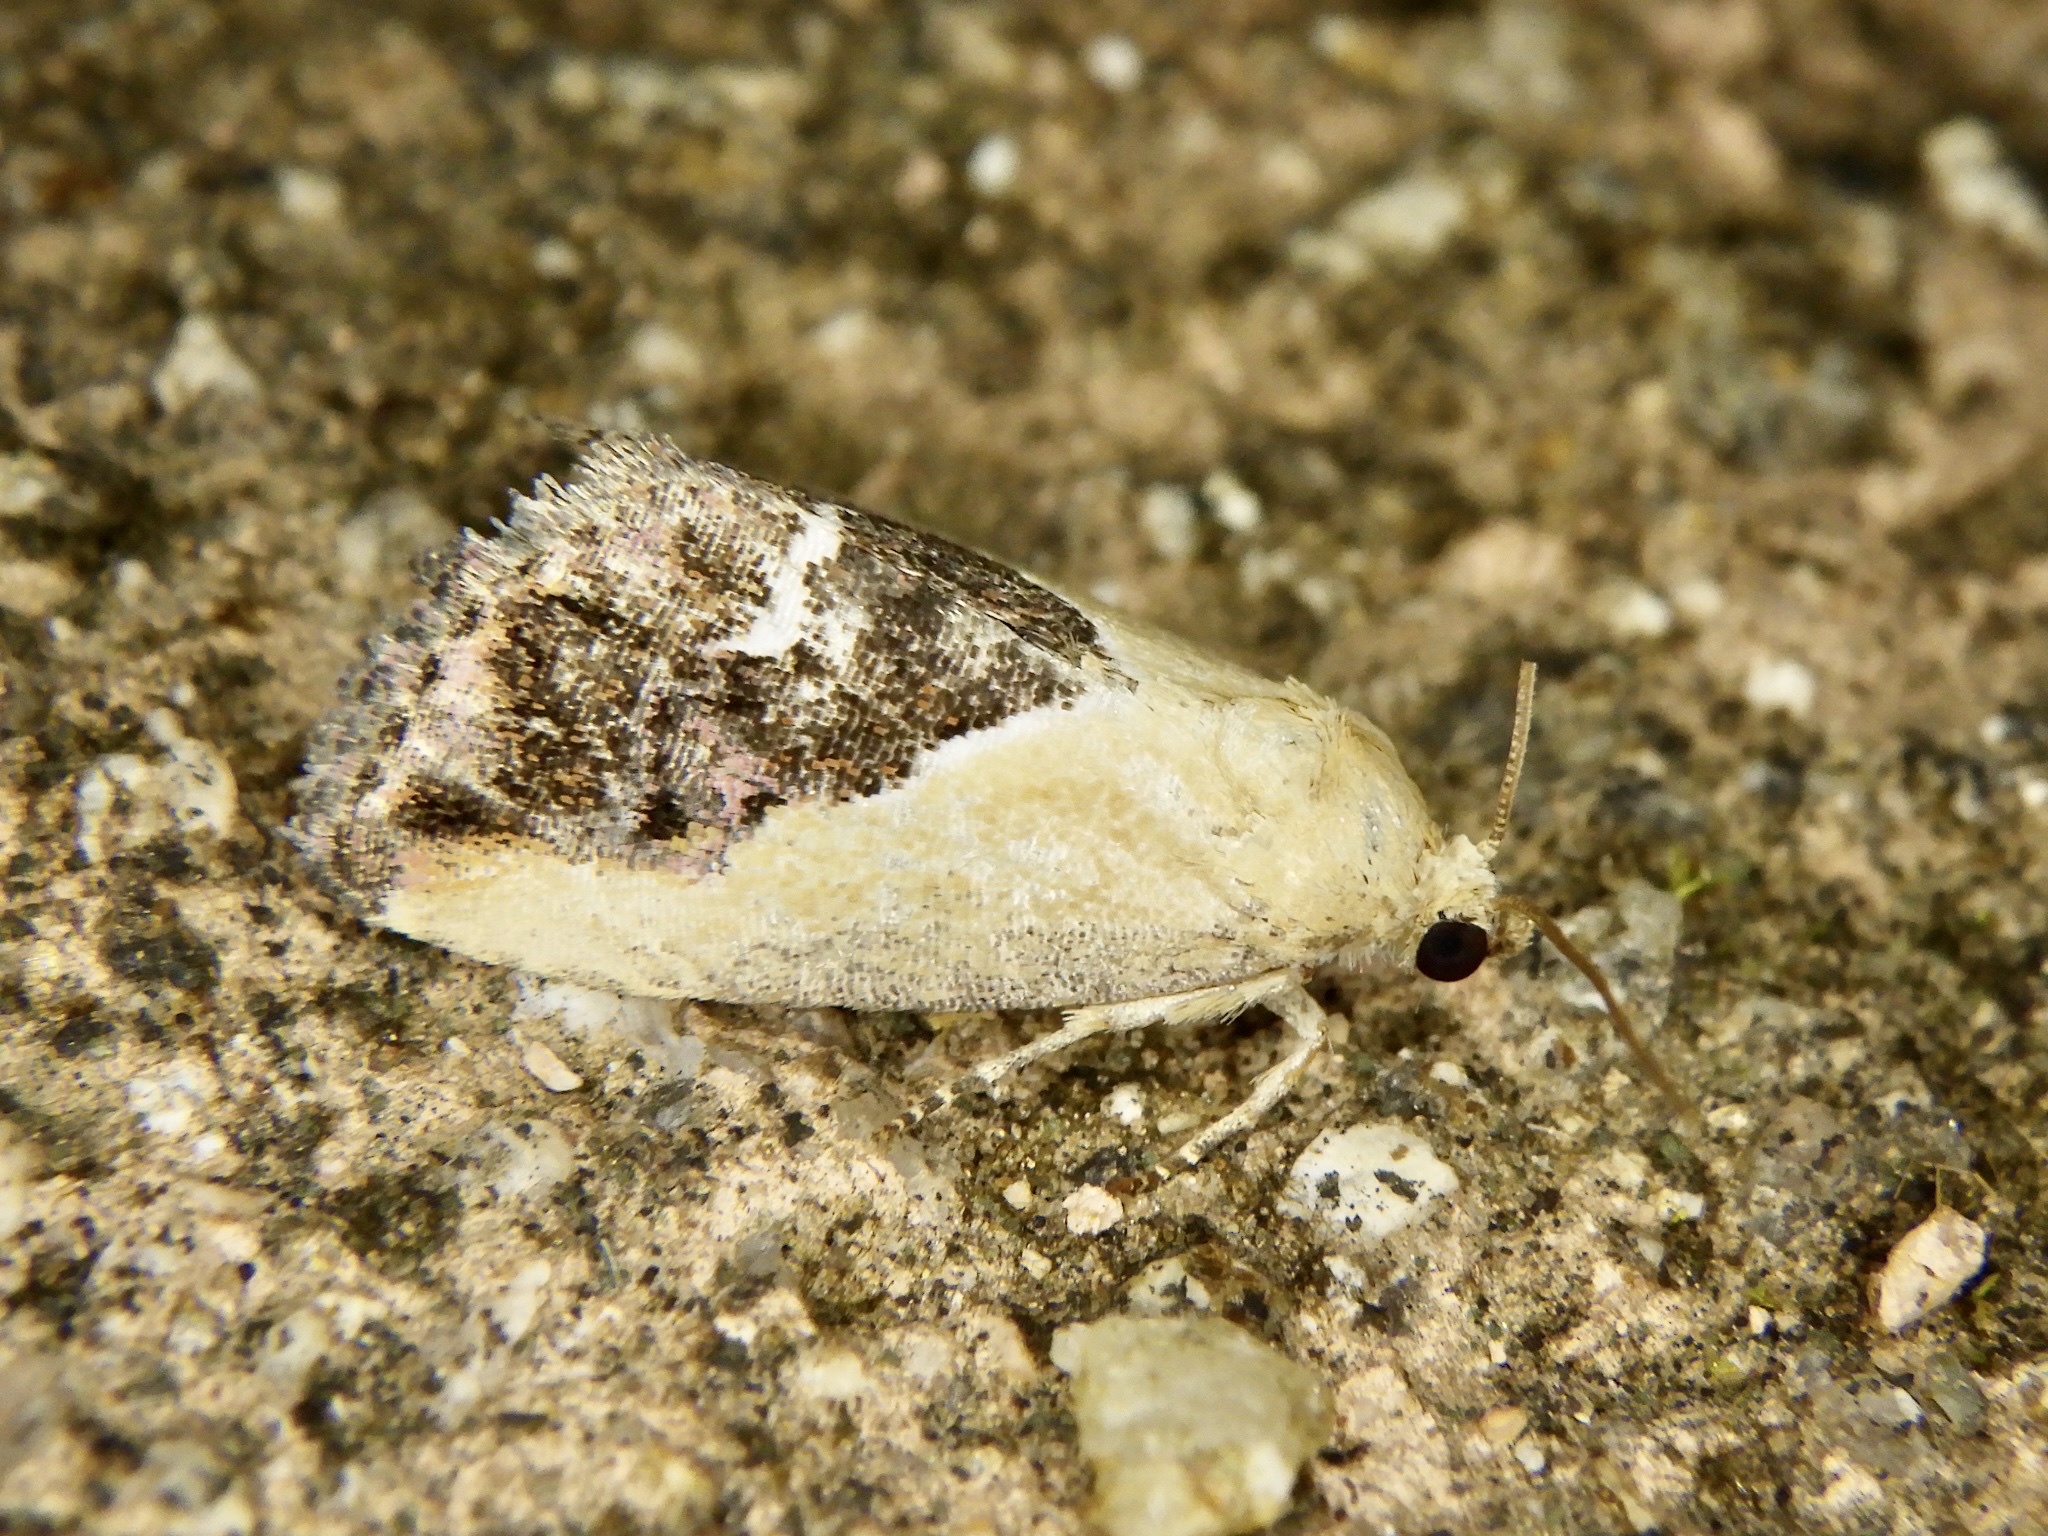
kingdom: Animalia
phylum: Arthropoda
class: Insecta
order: Lepidoptera
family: Noctuidae
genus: Maliattha
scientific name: Maliattha
